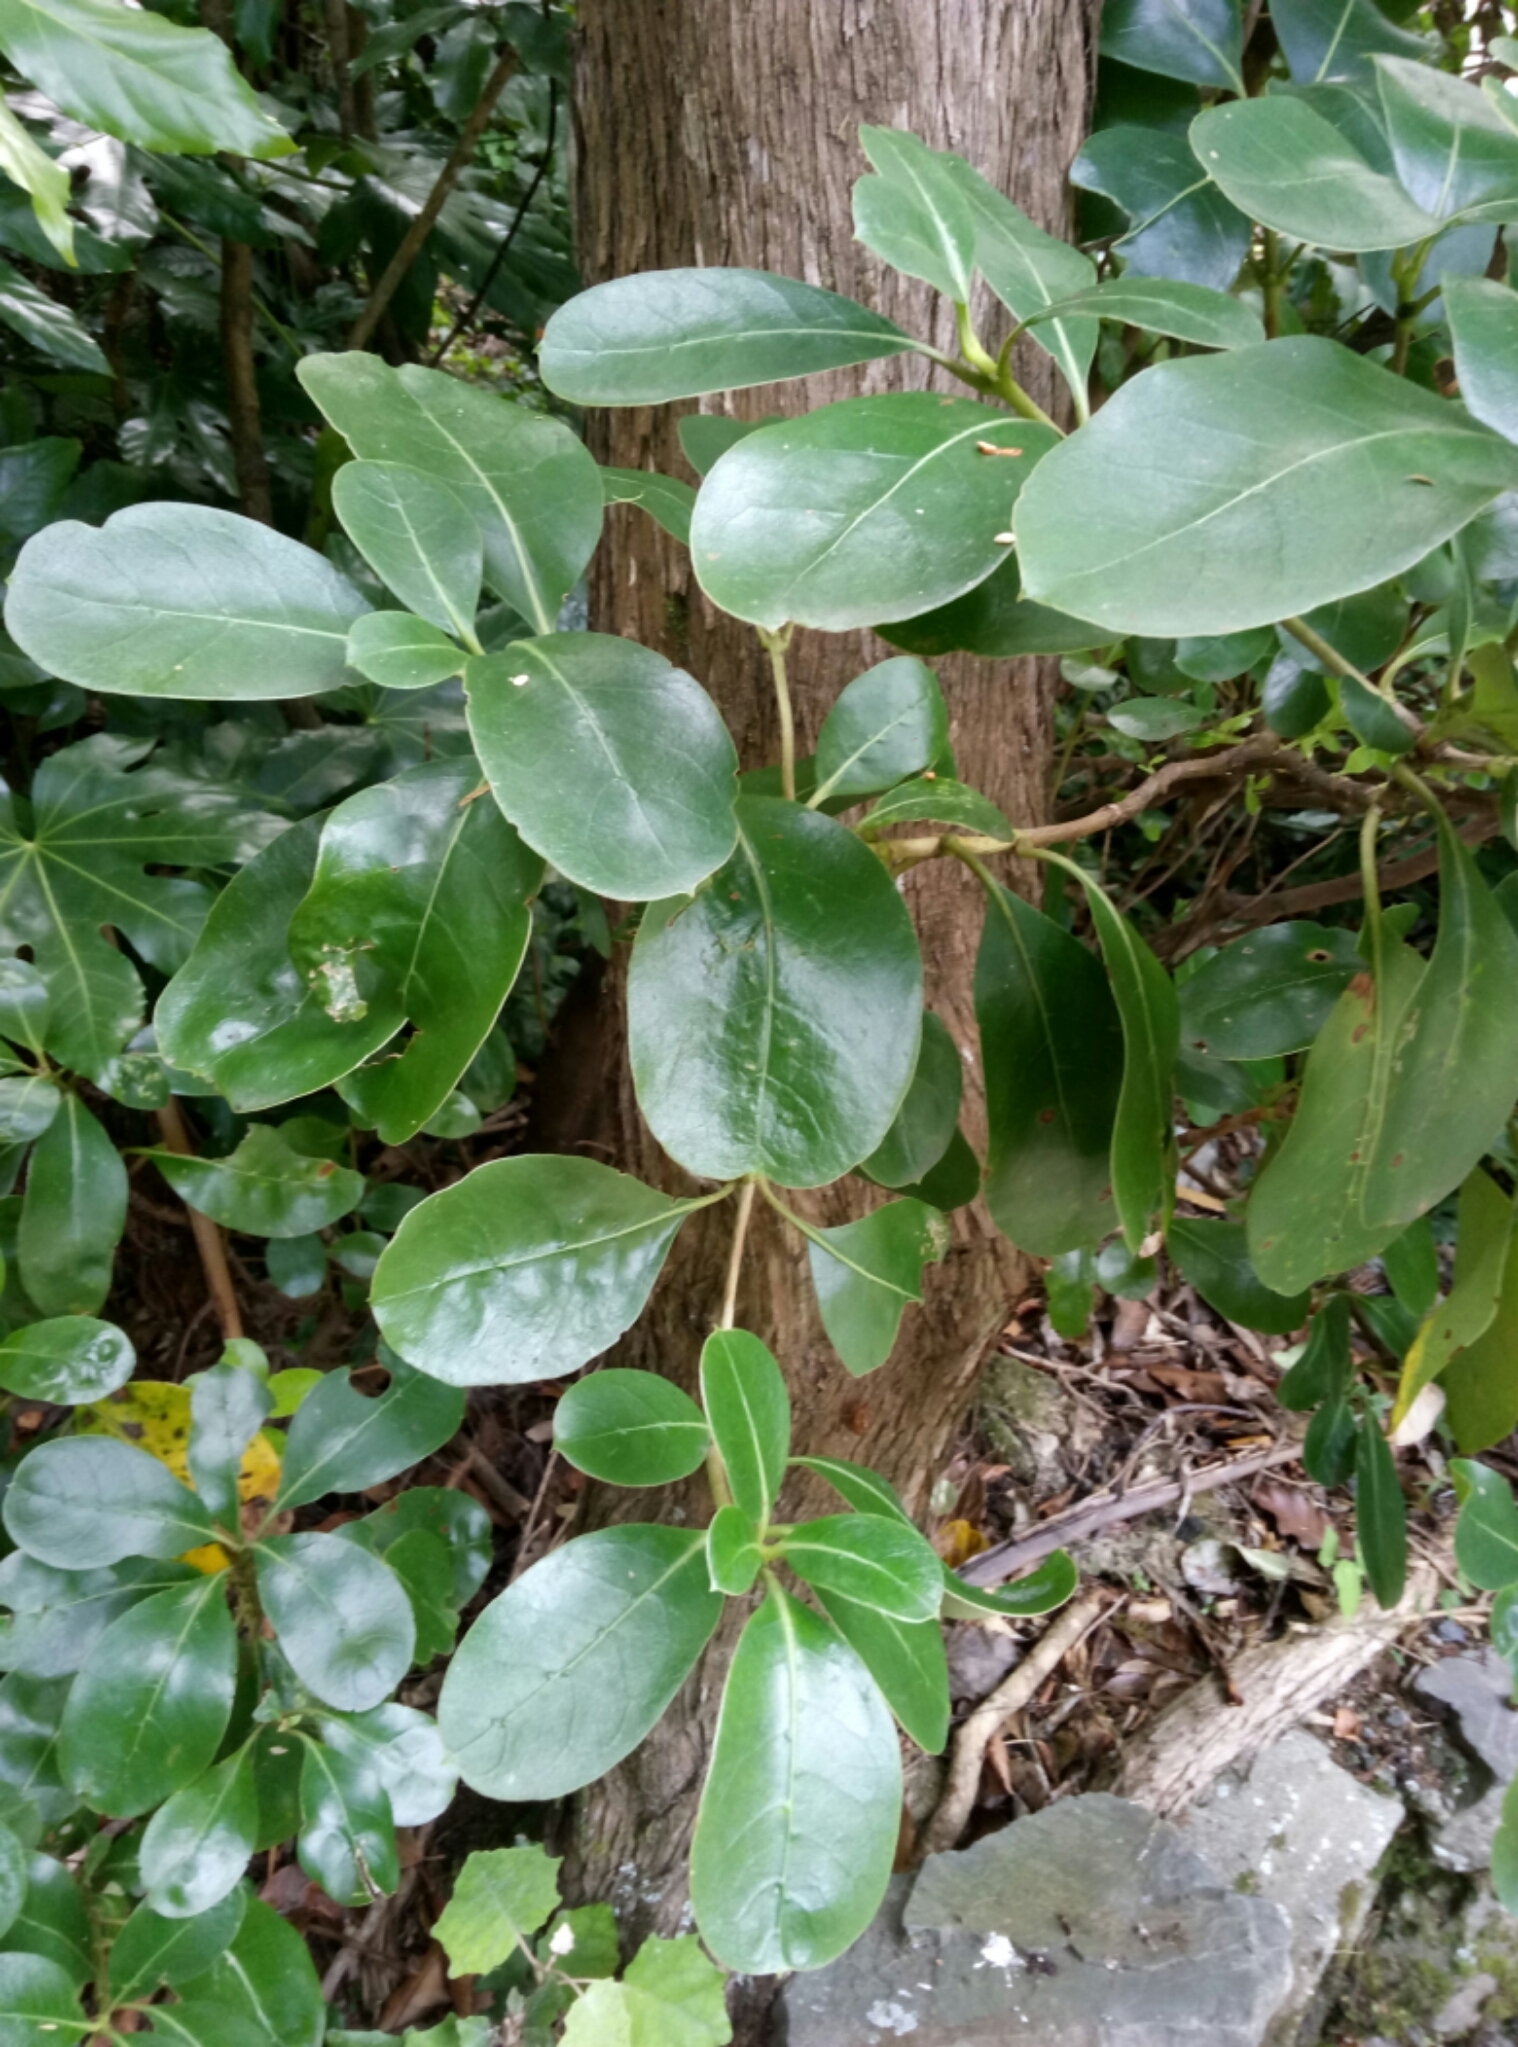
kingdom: Plantae
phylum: Tracheophyta
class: Magnoliopsida
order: Gentianales
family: Rubiaceae
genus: Coprosma
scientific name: Coprosma lucida
